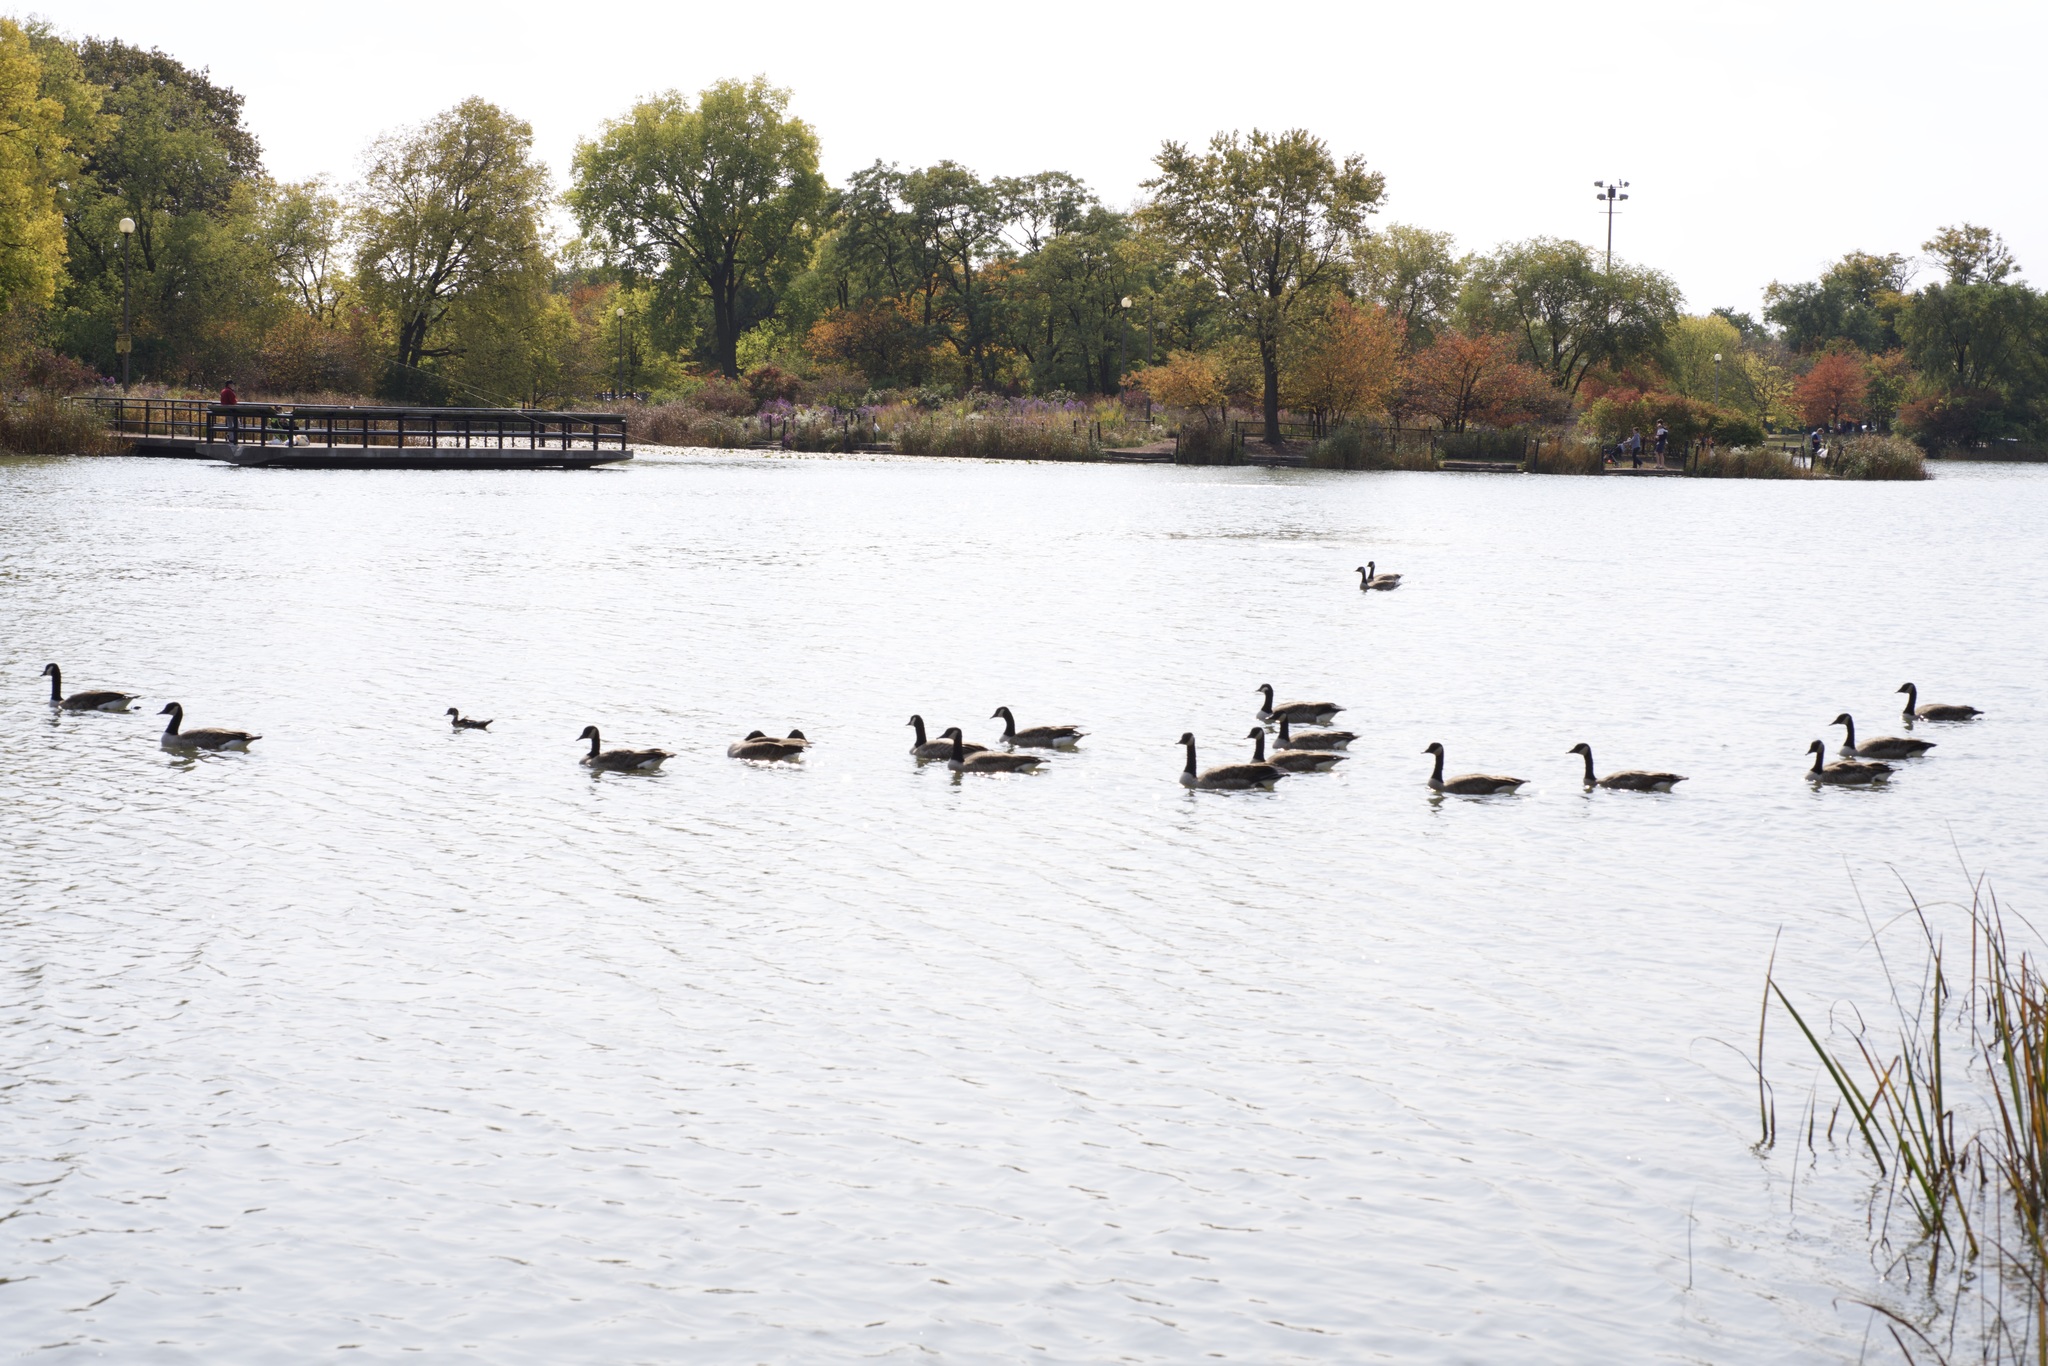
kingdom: Animalia
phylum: Chordata
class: Aves
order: Anseriformes
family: Anatidae
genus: Branta
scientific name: Branta canadensis
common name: Canada goose
